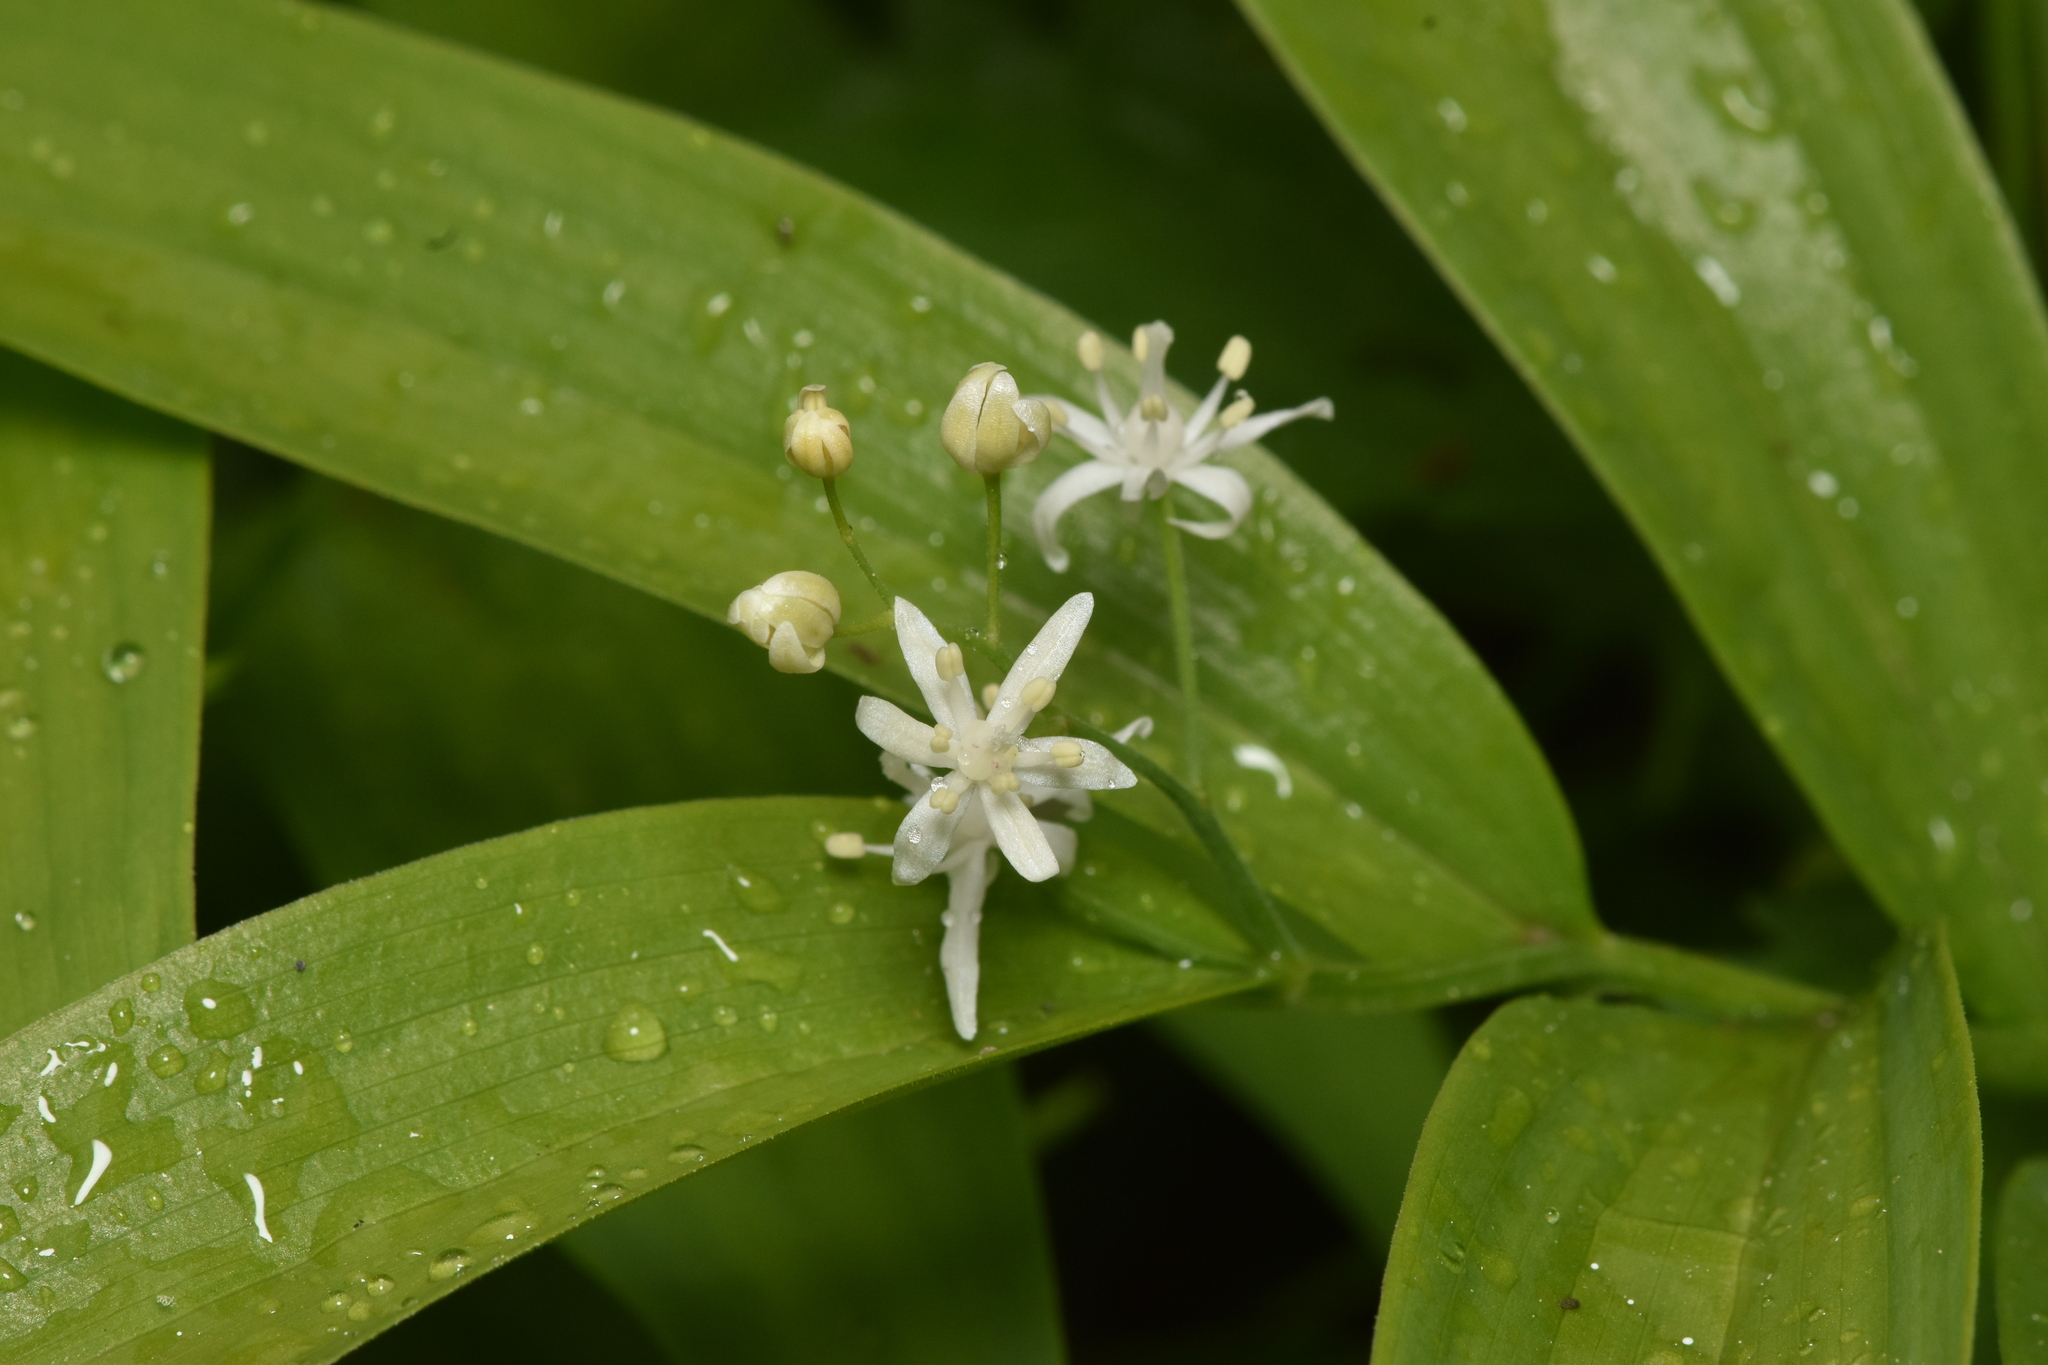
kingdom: Plantae
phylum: Tracheophyta
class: Liliopsida
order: Asparagales
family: Asparagaceae
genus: Maianthemum
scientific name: Maianthemum stellatum
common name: Little false solomon's seal
